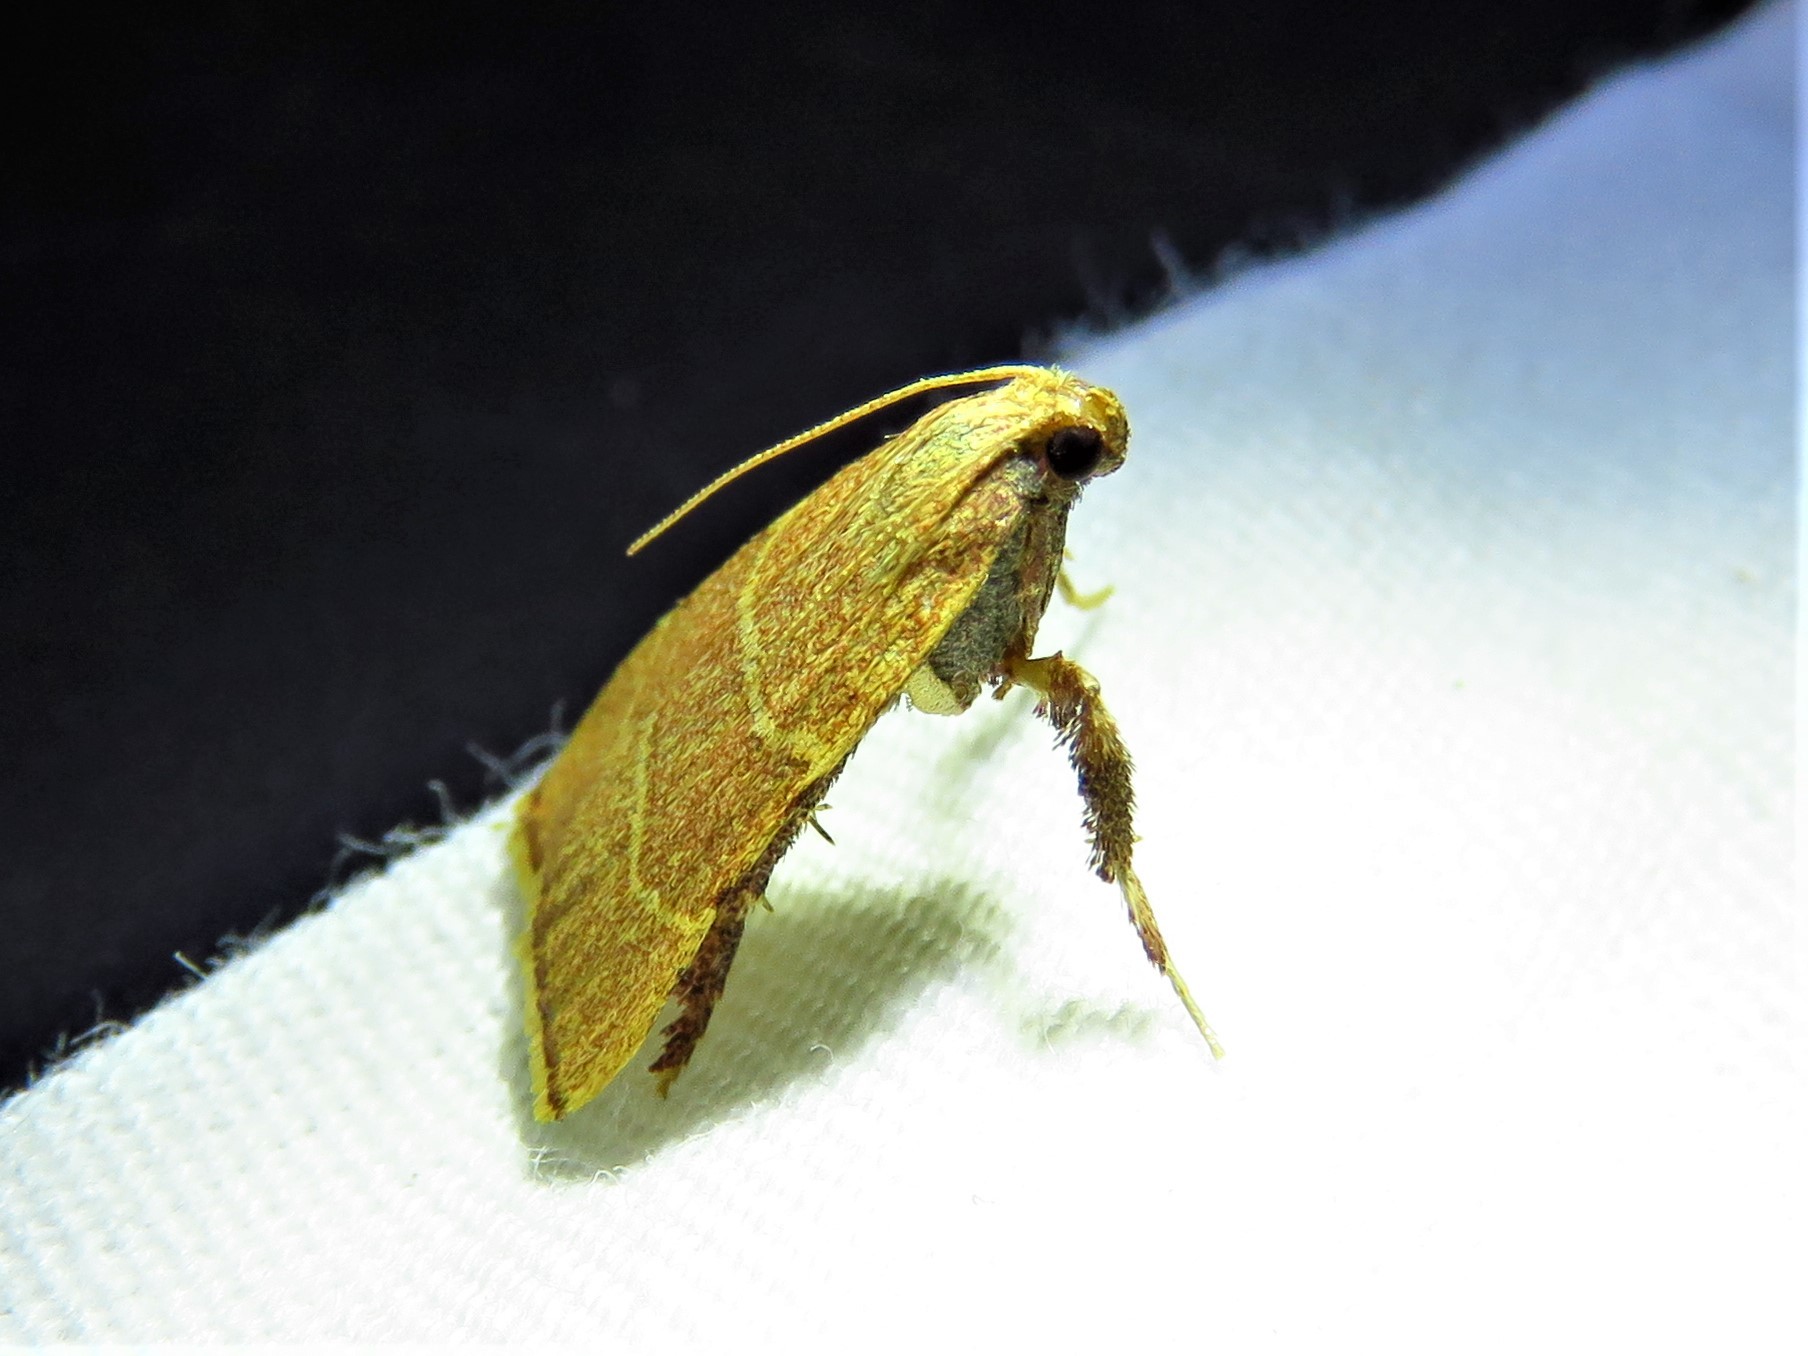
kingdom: Animalia
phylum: Arthropoda
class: Insecta
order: Lepidoptera
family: Pyralidae
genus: Parachma
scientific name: Parachma ochracealis
